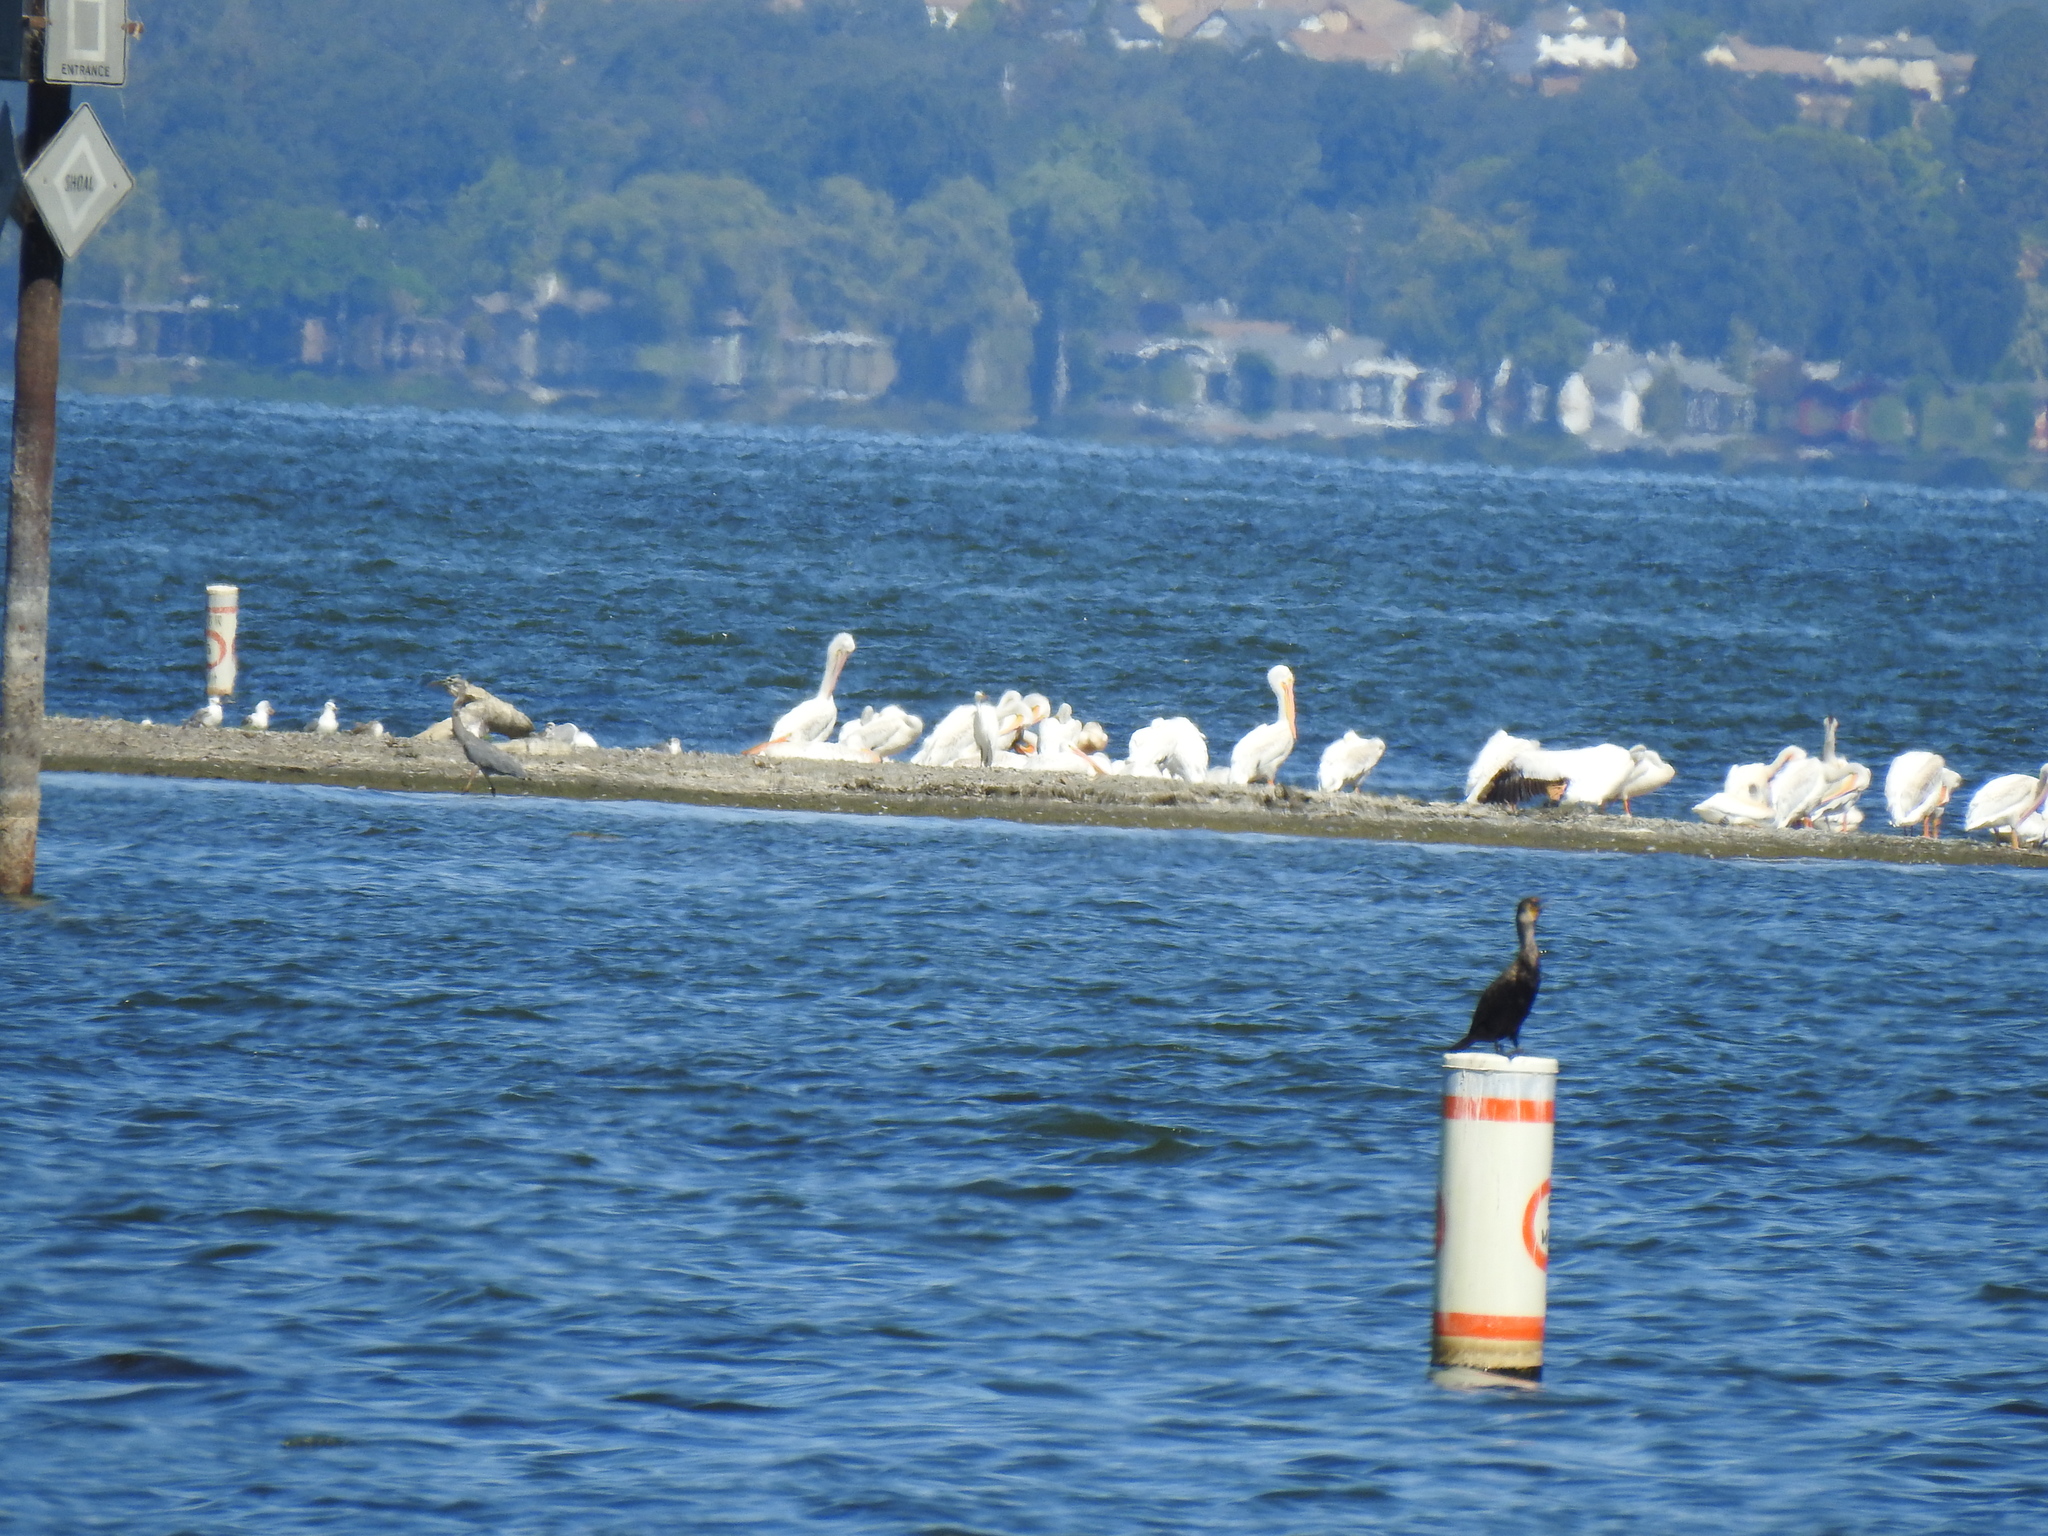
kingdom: Animalia
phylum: Chordata
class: Aves
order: Pelecaniformes
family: Pelecanidae
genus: Pelecanus
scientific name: Pelecanus erythrorhynchos
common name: American white pelican
